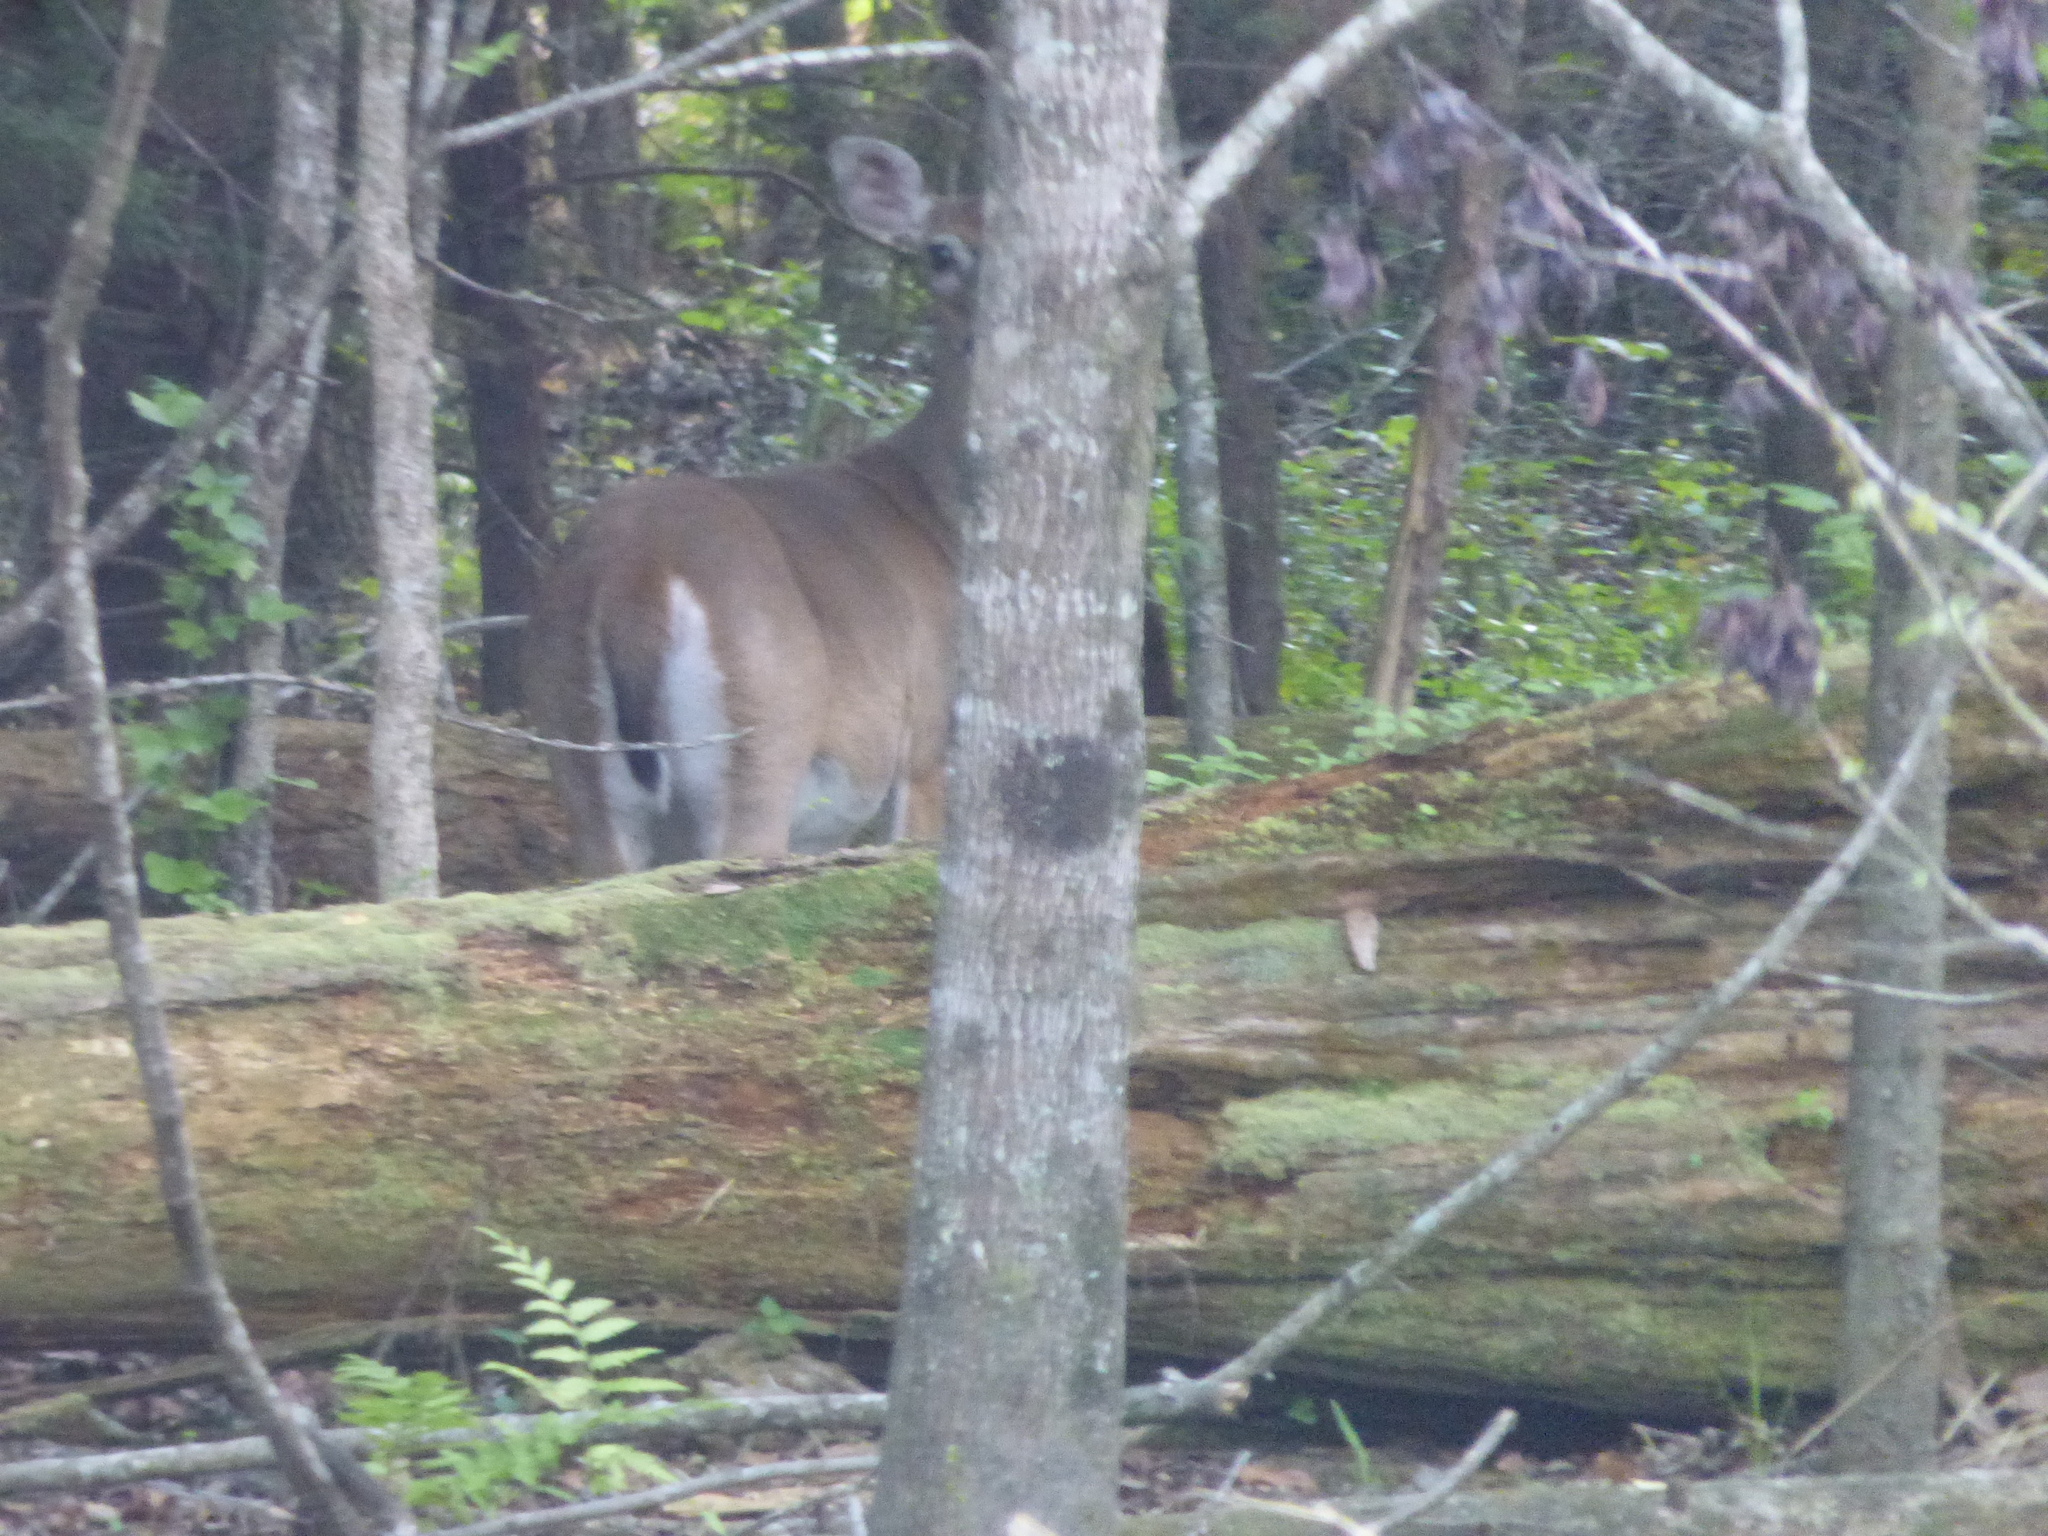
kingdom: Animalia
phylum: Chordata
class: Mammalia
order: Artiodactyla
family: Cervidae
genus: Odocoileus
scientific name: Odocoileus virginianus
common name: White-tailed deer
